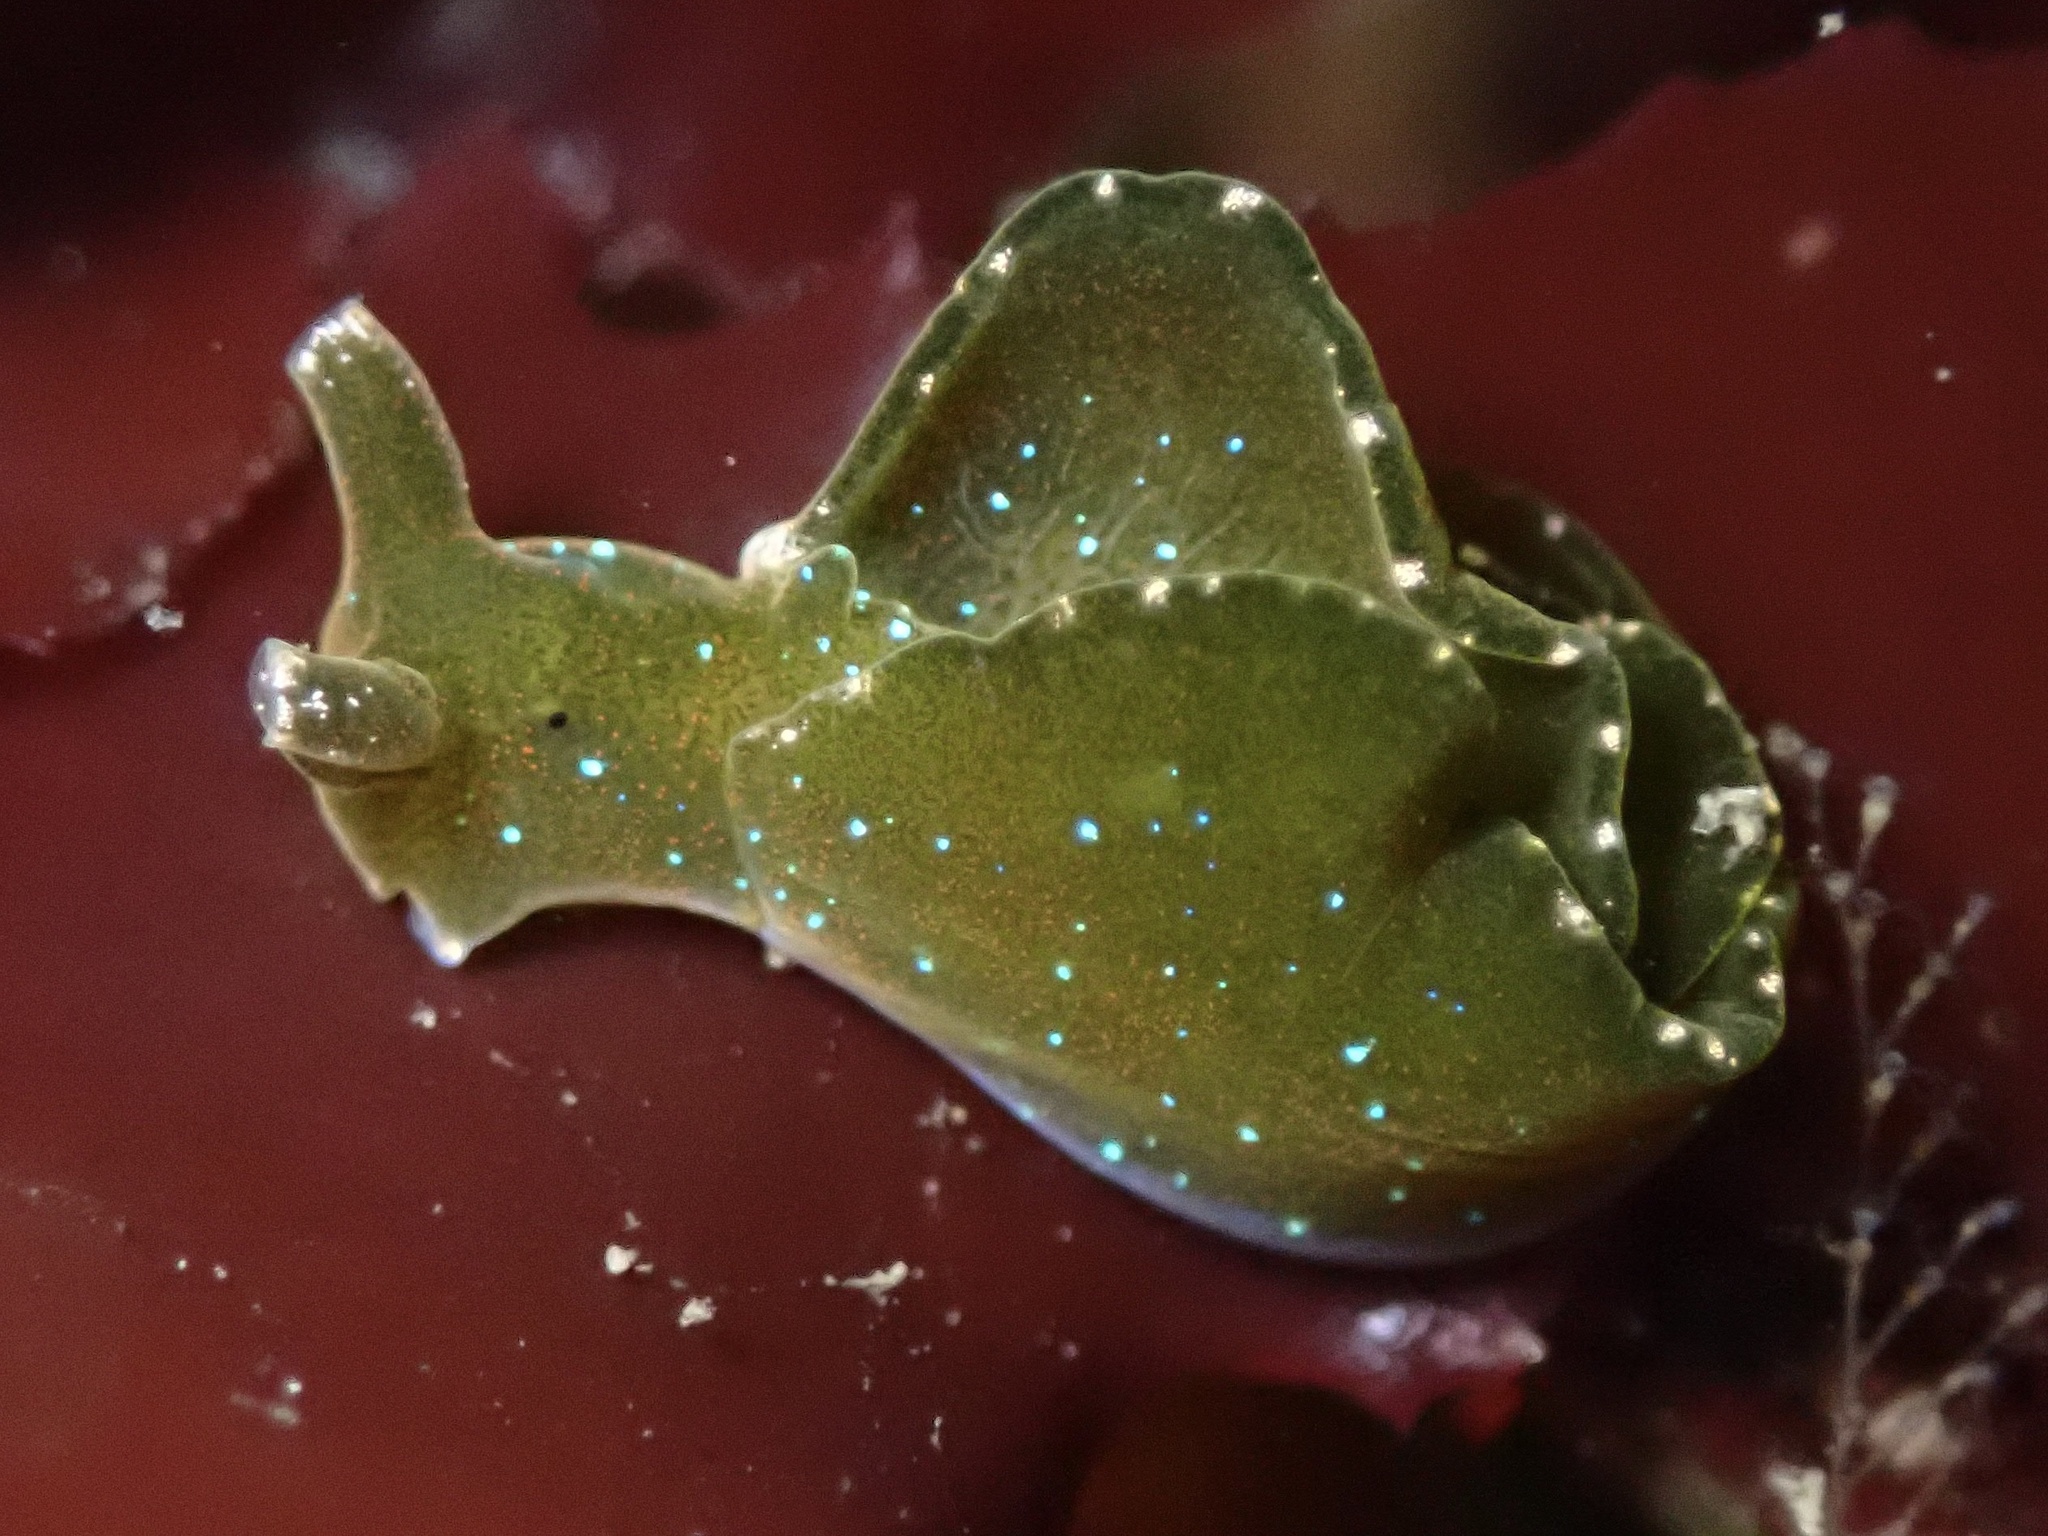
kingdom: Animalia
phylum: Mollusca
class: Gastropoda
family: Plakobranchidae
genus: Elysia
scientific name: Elysia hedgpethi
